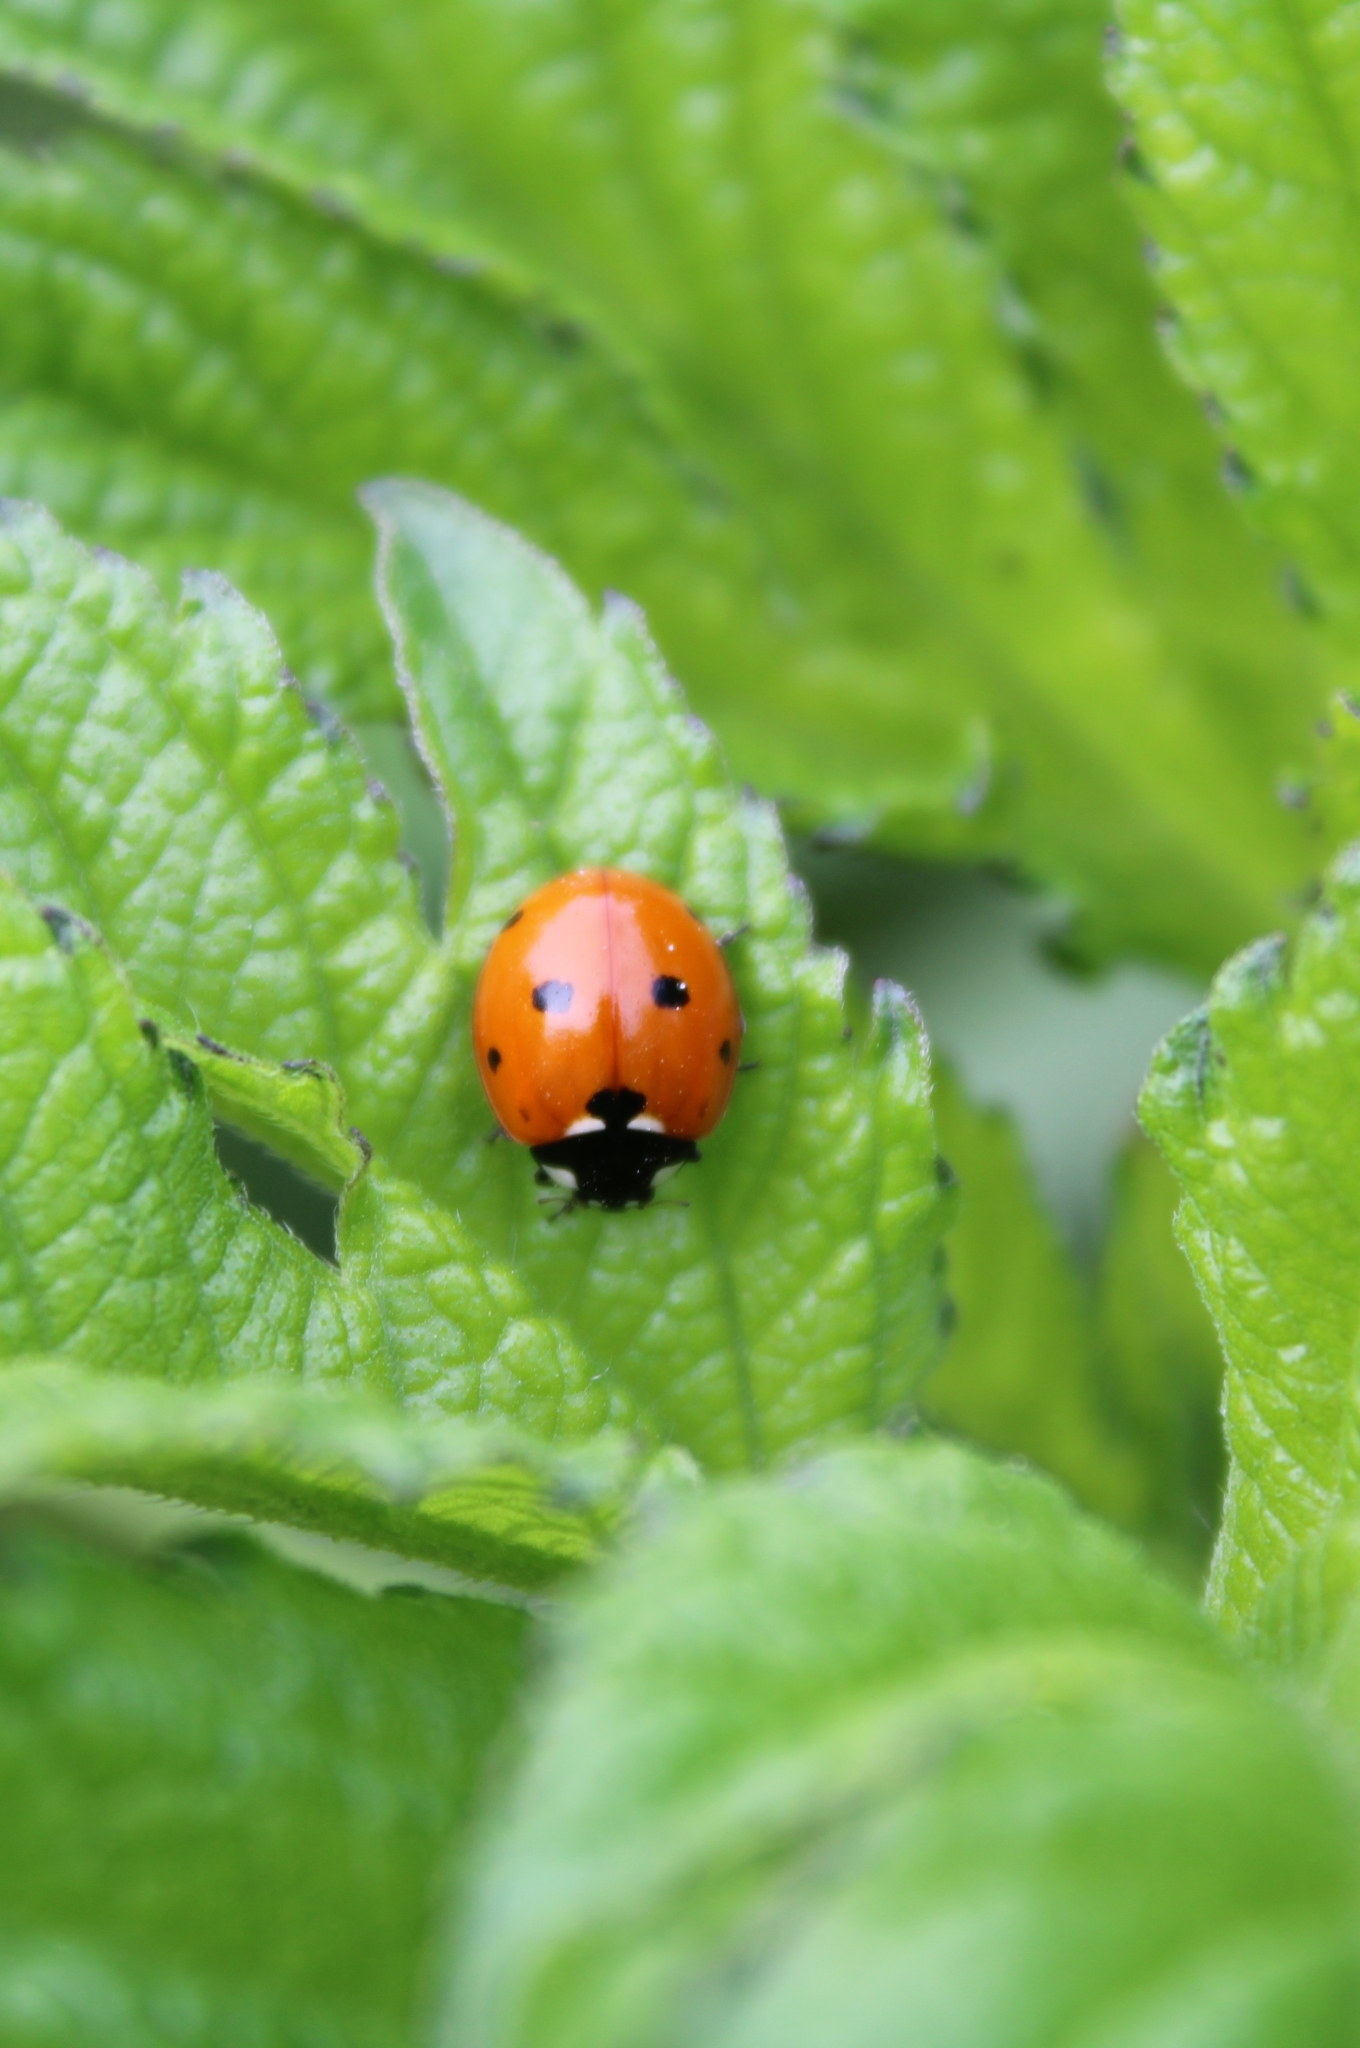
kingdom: Animalia
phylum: Arthropoda
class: Insecta
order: Coleoptera
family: Coccinellidae
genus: Coccinella
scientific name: Coccinella septempunctata
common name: Sevenspotted lady beetle
